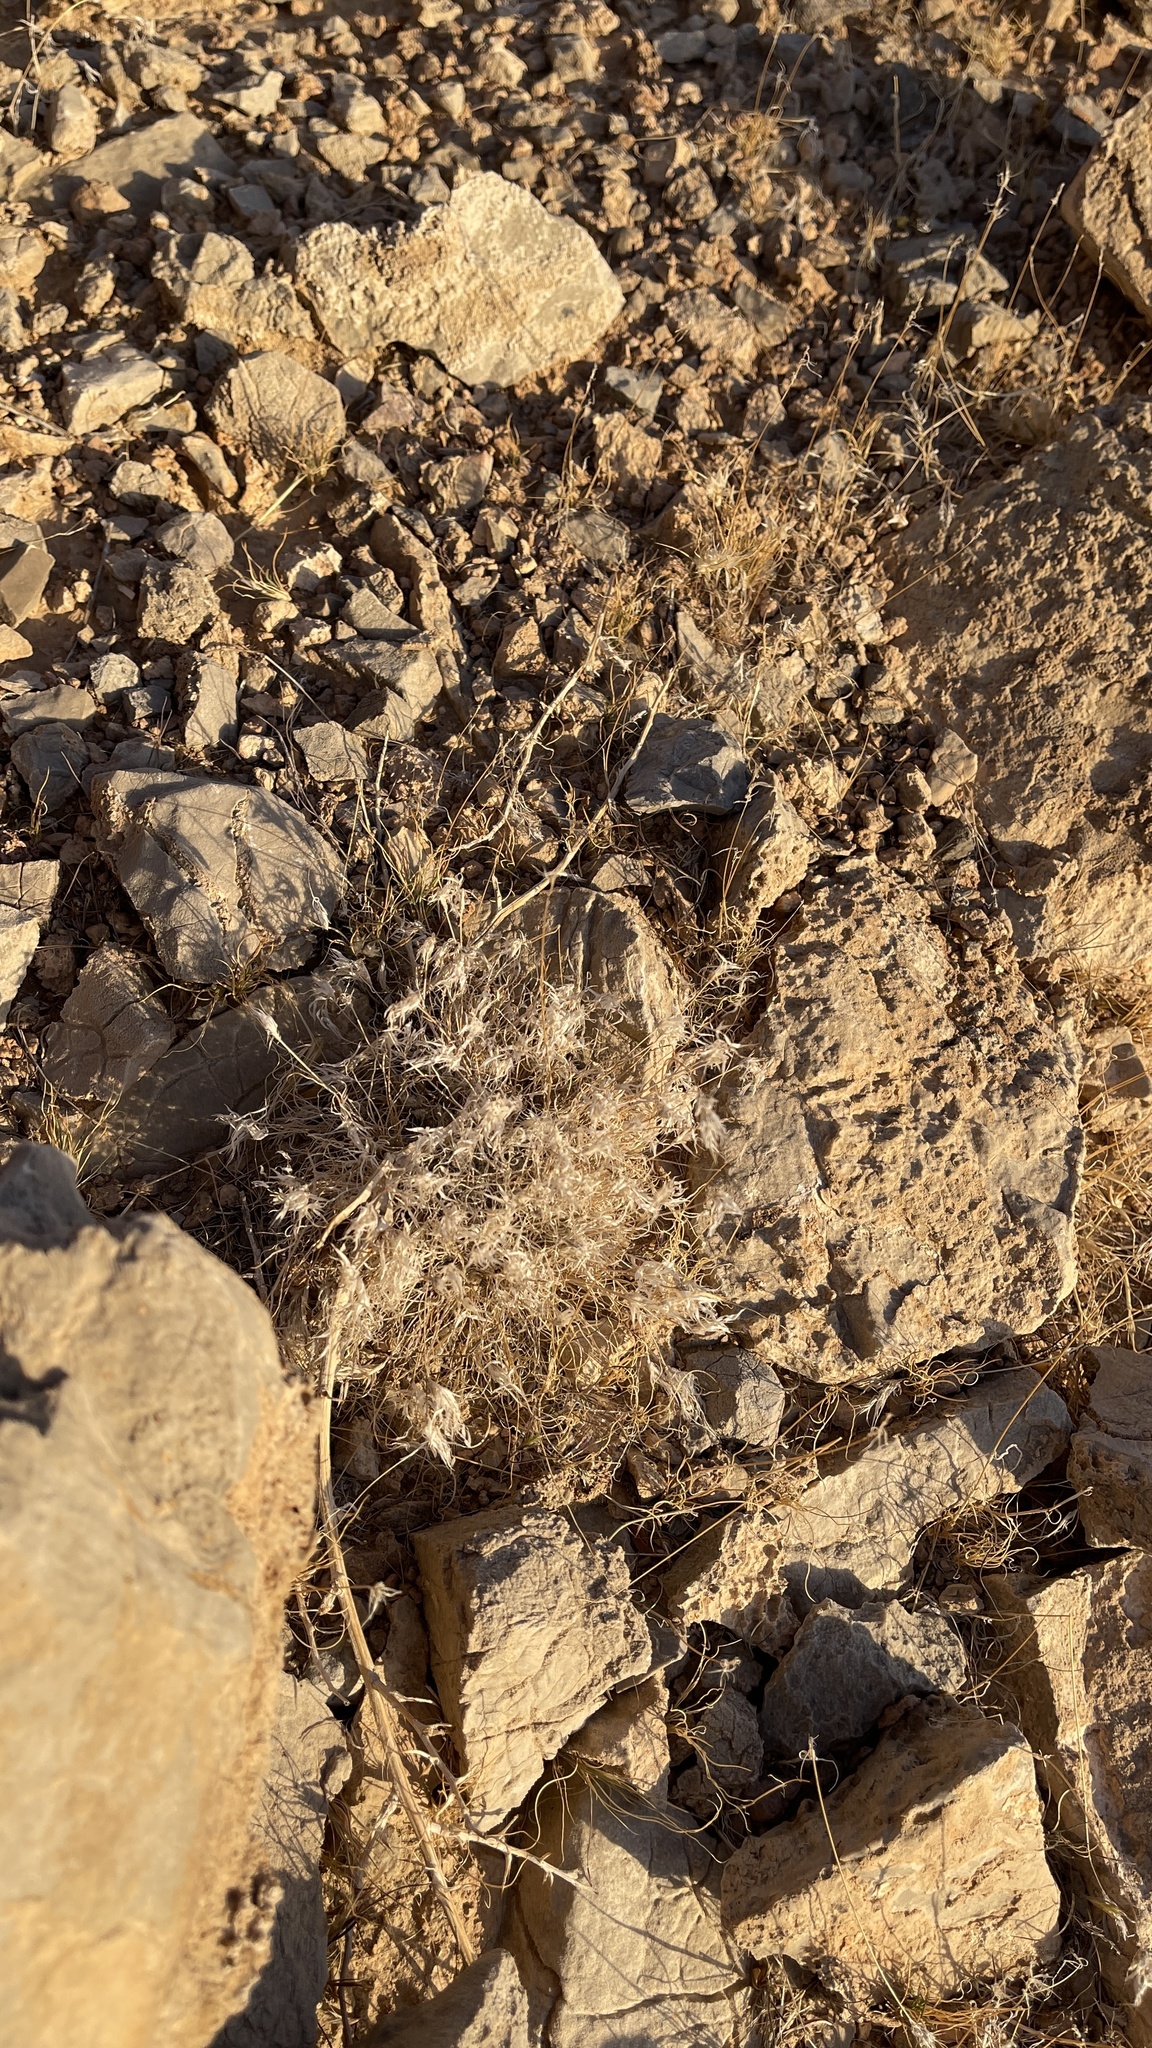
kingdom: Plantae
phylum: Tracheophyta
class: Liliopsida
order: Poales
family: Poaceae
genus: Dasyochloa
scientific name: Dasyochloa pulchella
